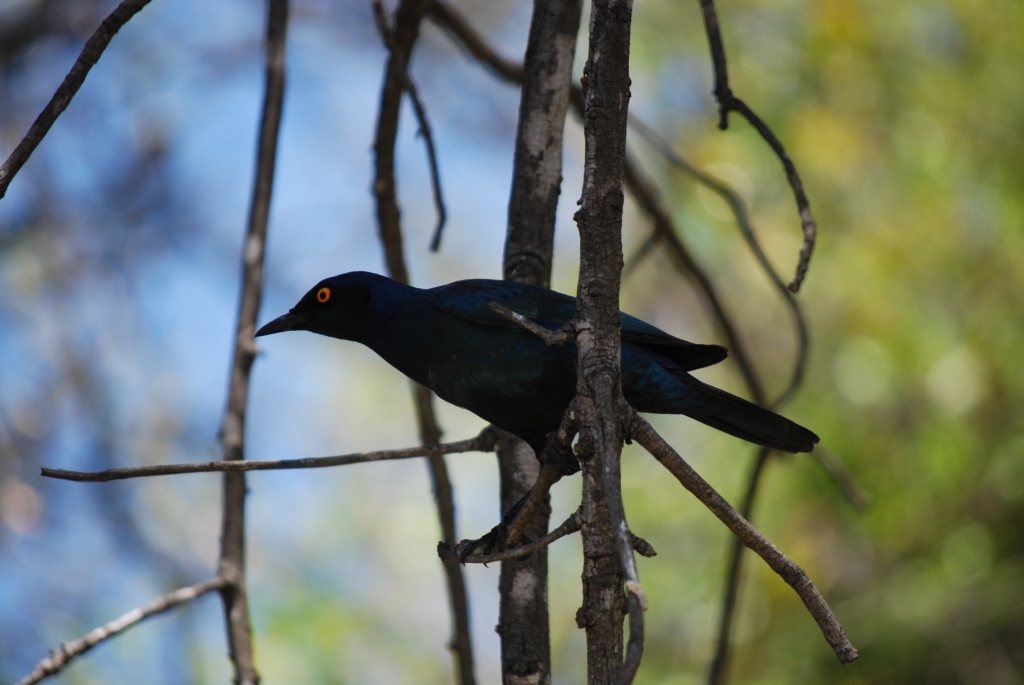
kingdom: Animalia
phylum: Chordata
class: Aves
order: Passeriformes
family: Sturnidae
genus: Lamprotornis
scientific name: Lamprotornis nitens
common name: Cape starling
